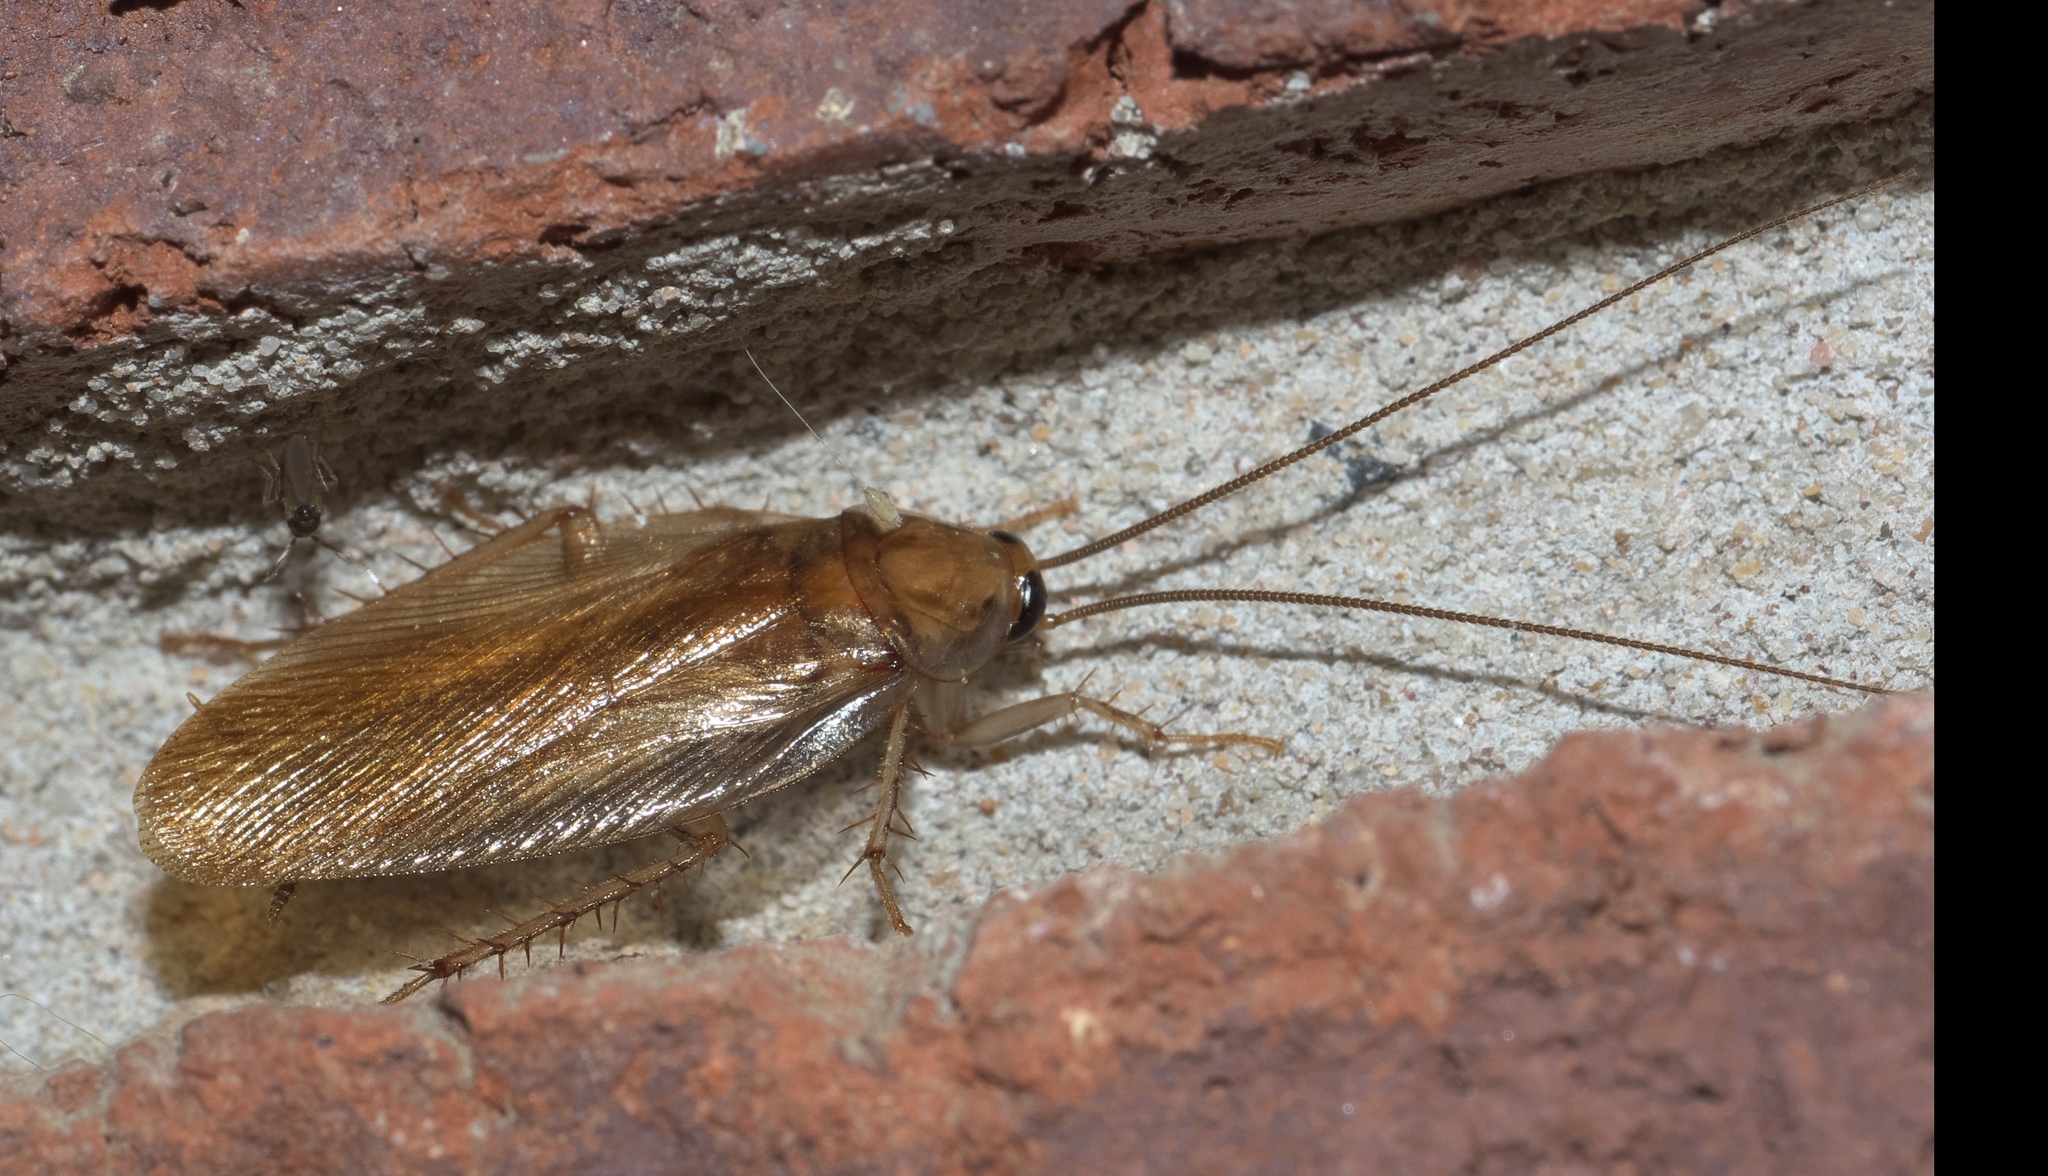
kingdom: Animalia
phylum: Arthropoda
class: Insecta
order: Blattodea
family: Ectobiidae
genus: Parcoblatta
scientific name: Parcoblatta zebra
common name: Banded wood cockroach
